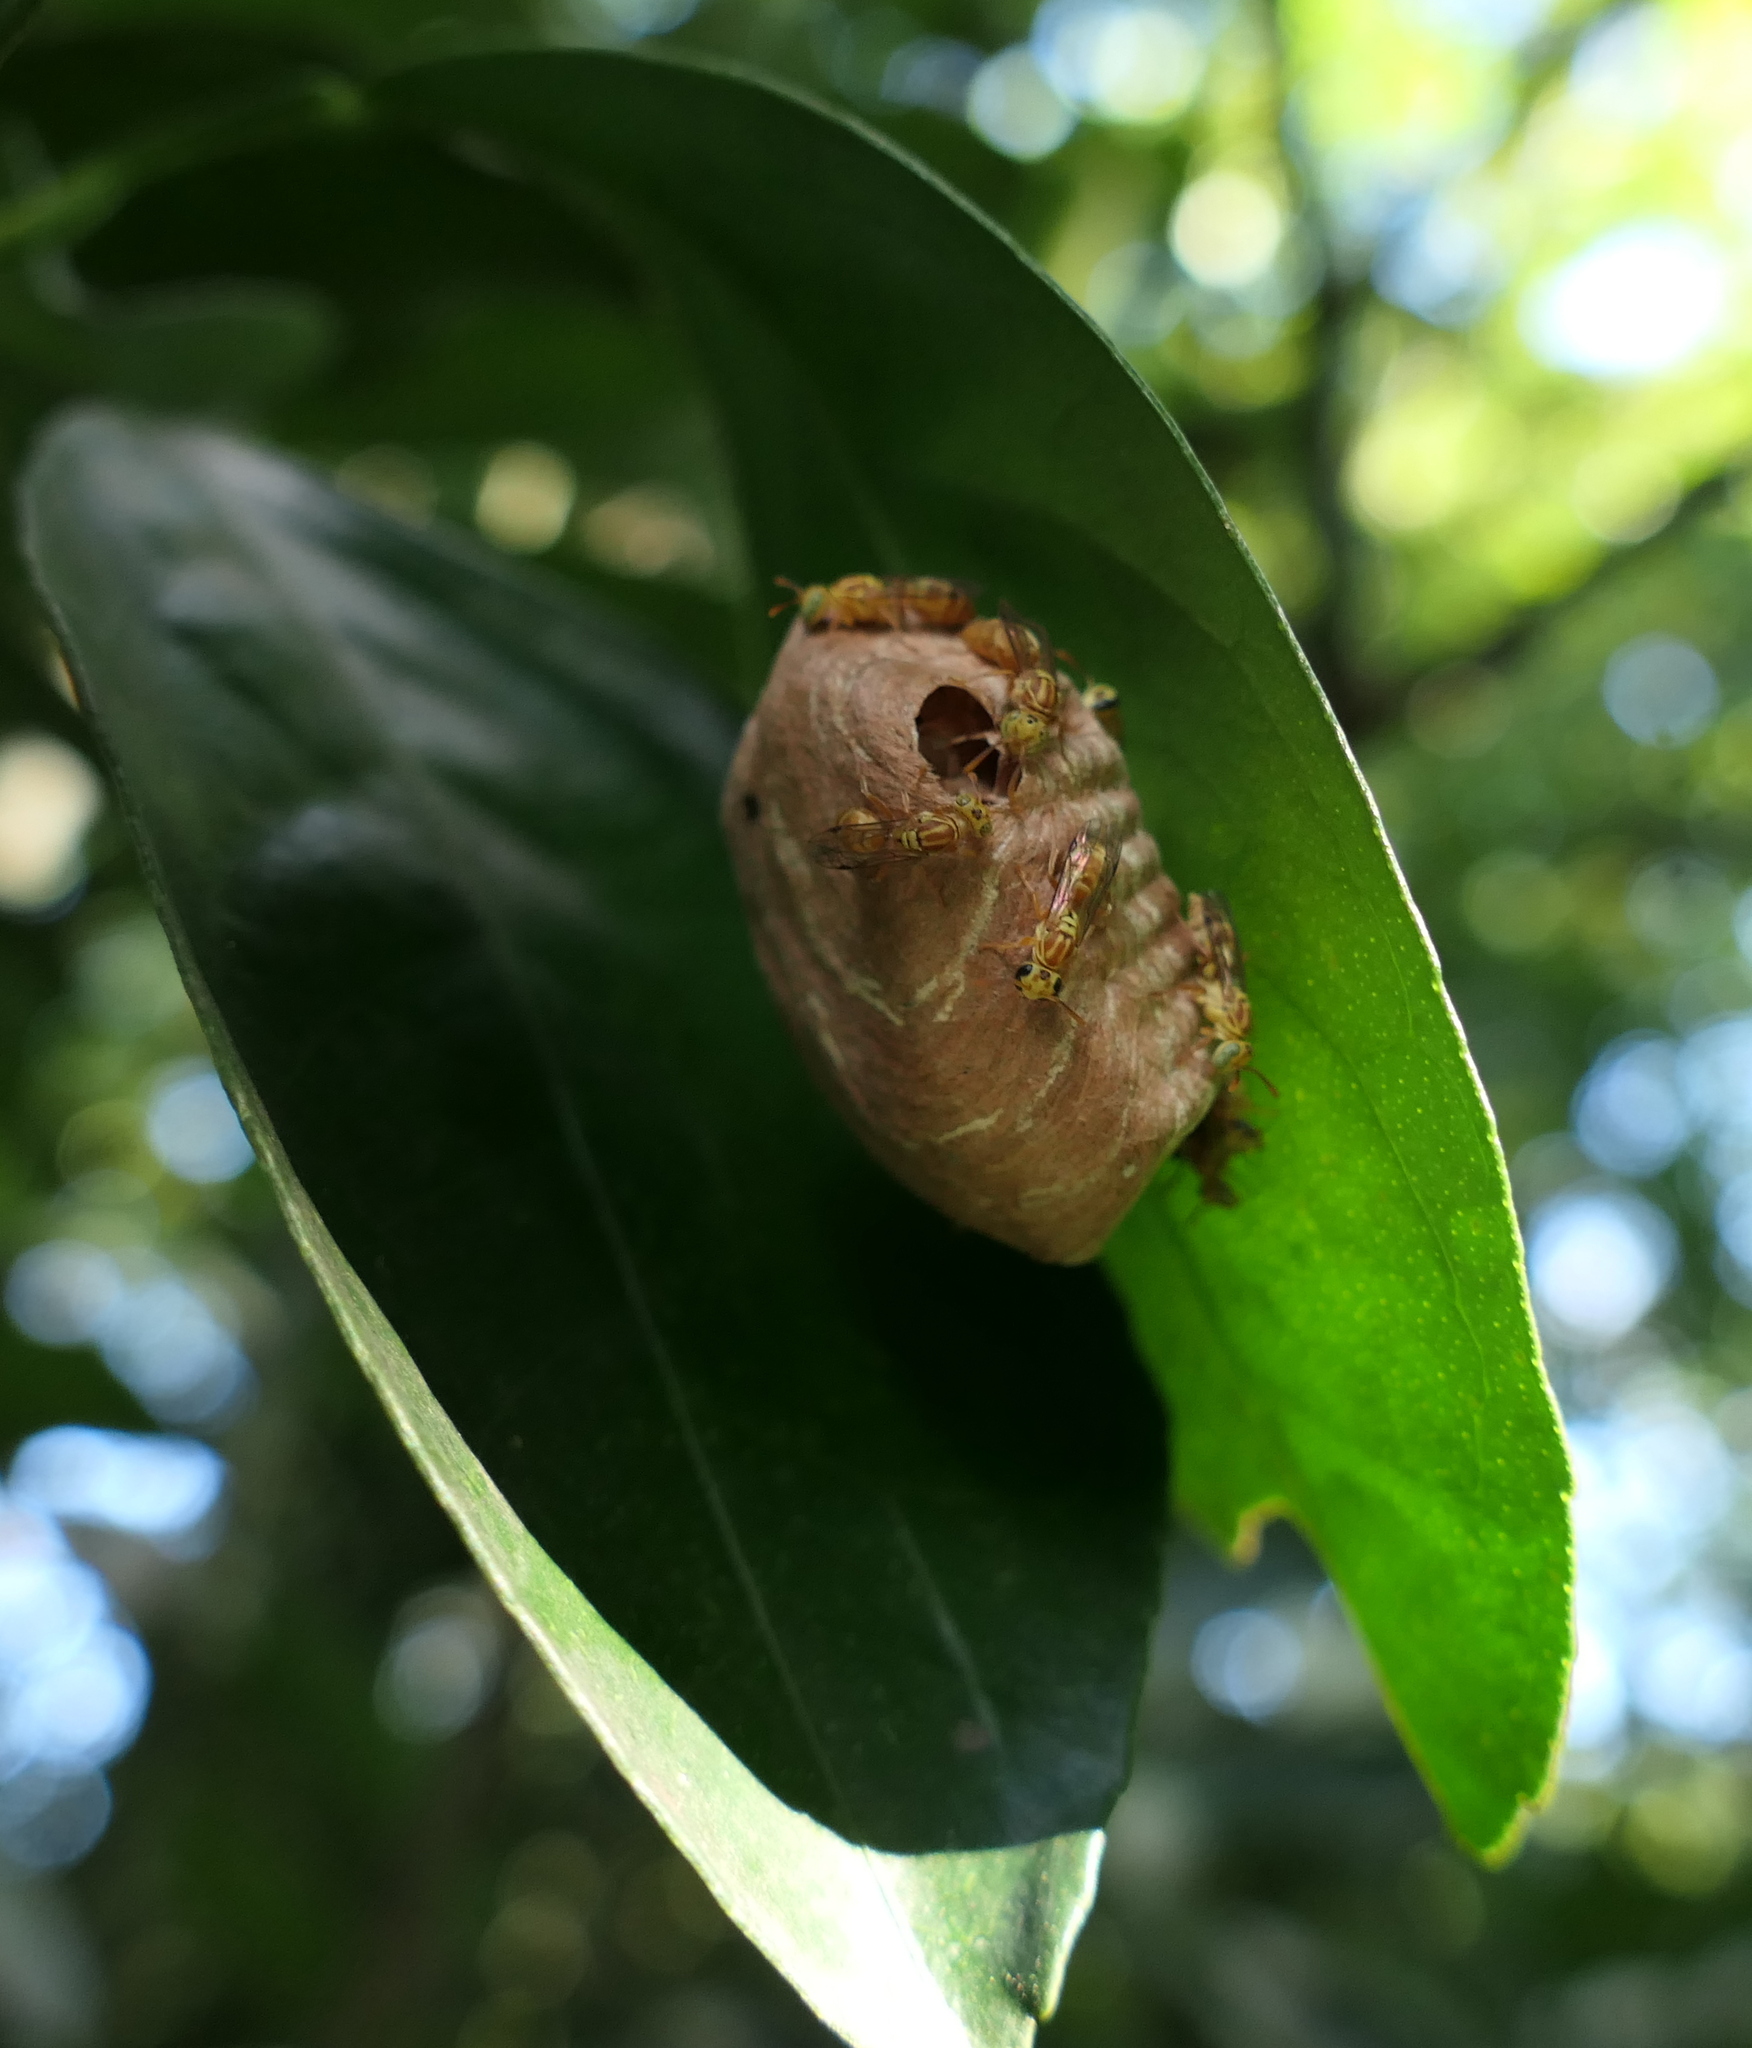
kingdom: Animalia
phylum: Arthropoda
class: Insecta
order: Hymenoptera
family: Vespidae
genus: Protopolybia
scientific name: Protopolybia potiguara
